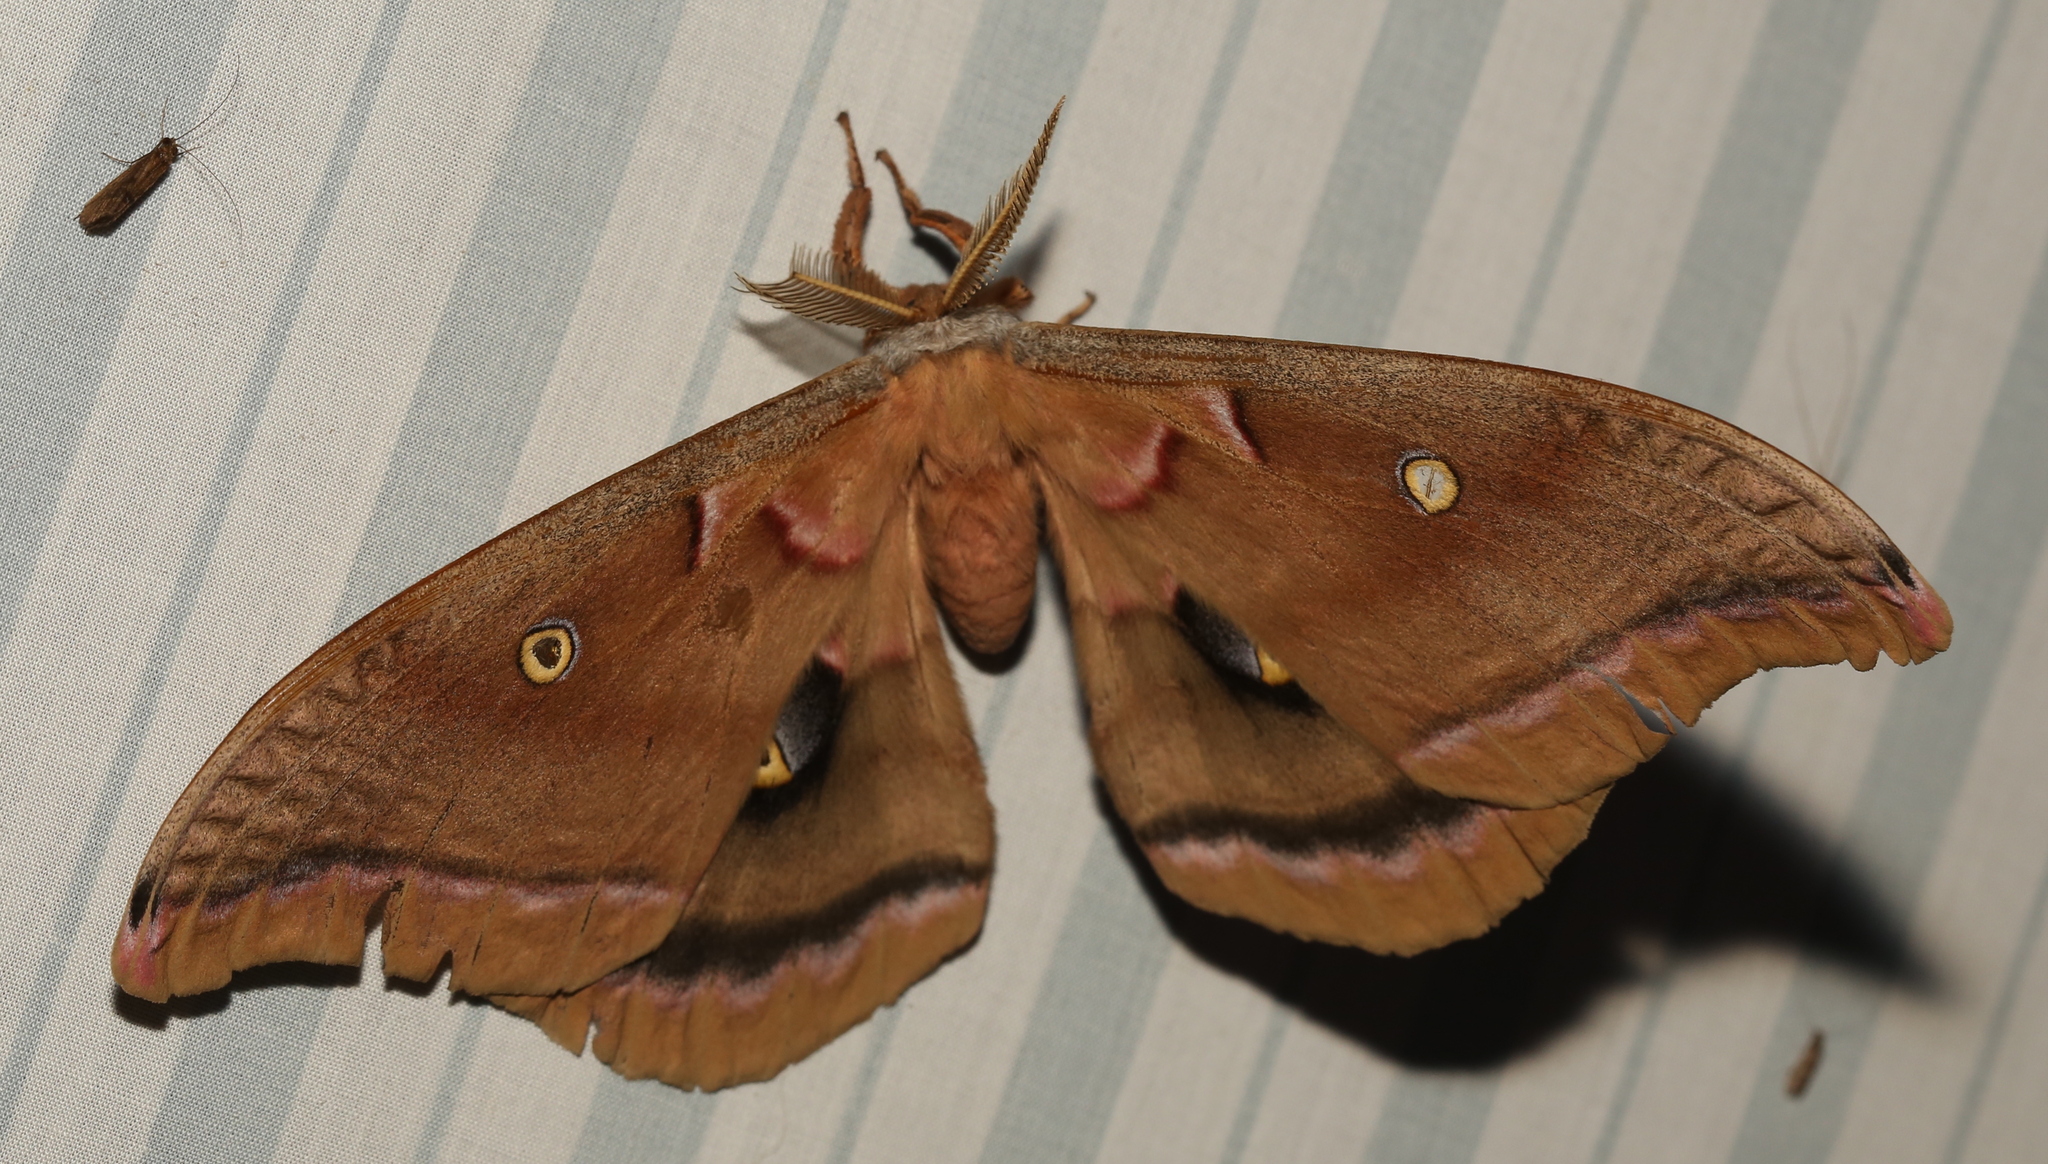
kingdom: Animalia
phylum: Arthropoda
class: Insecta
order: Lepidoptera
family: Saturniidae
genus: Antheraea
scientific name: Antheraea polyphemus
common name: Polyphemus moth
